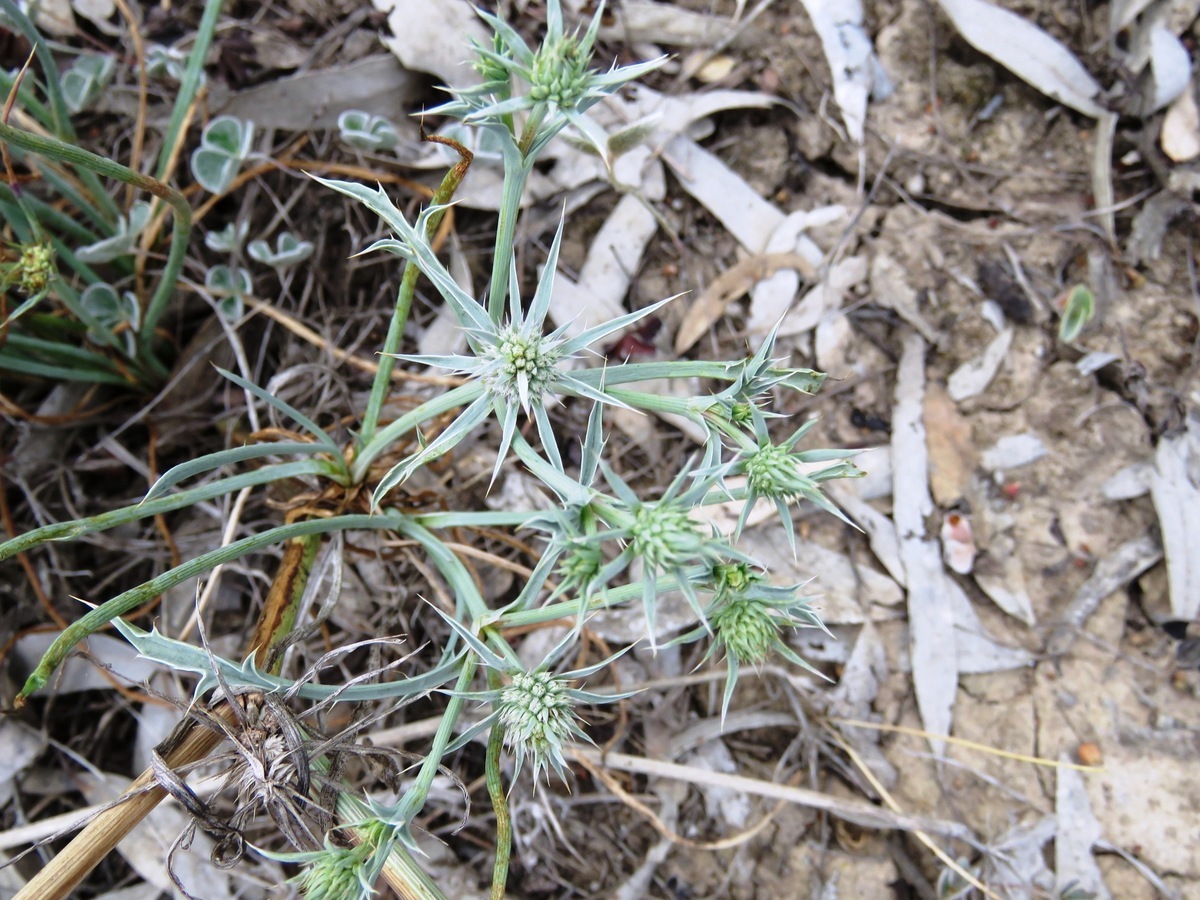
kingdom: Plantae
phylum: Tracheophyta
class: Magnoliopsida
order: Apiales
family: Apiaceae
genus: Eryngium
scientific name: Eryngium ovinum
